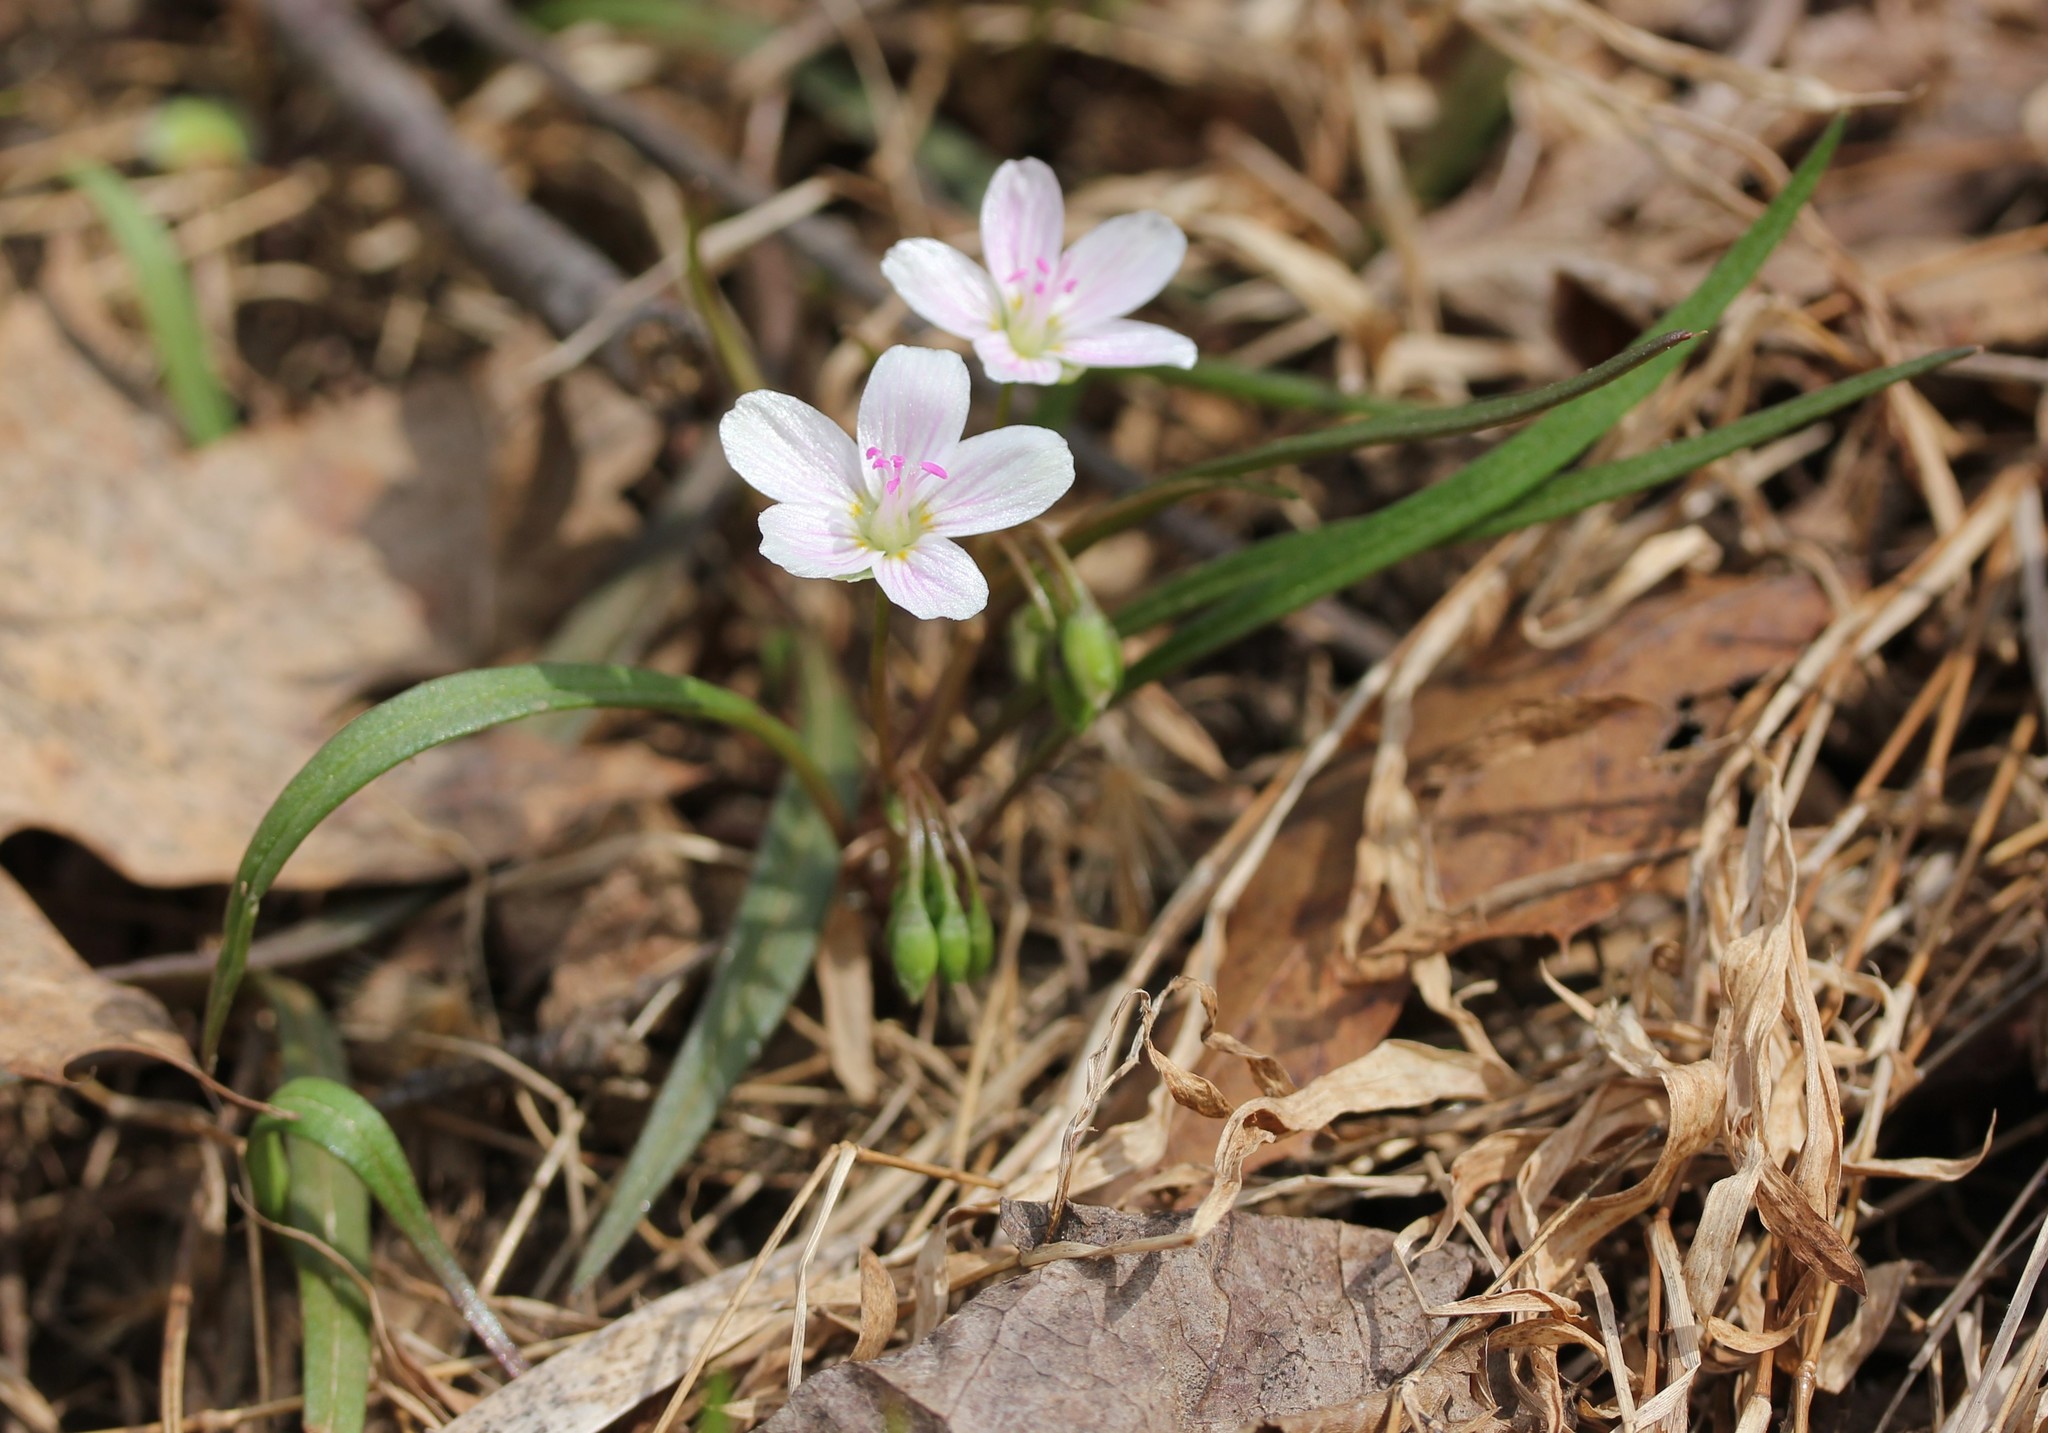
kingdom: Plantae
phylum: Tracheophyta
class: Magnoliopsida
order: Caryophyllales
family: Montiaceae
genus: Claytonia
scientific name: Claytonia virginica
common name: Virginia springbeauty
